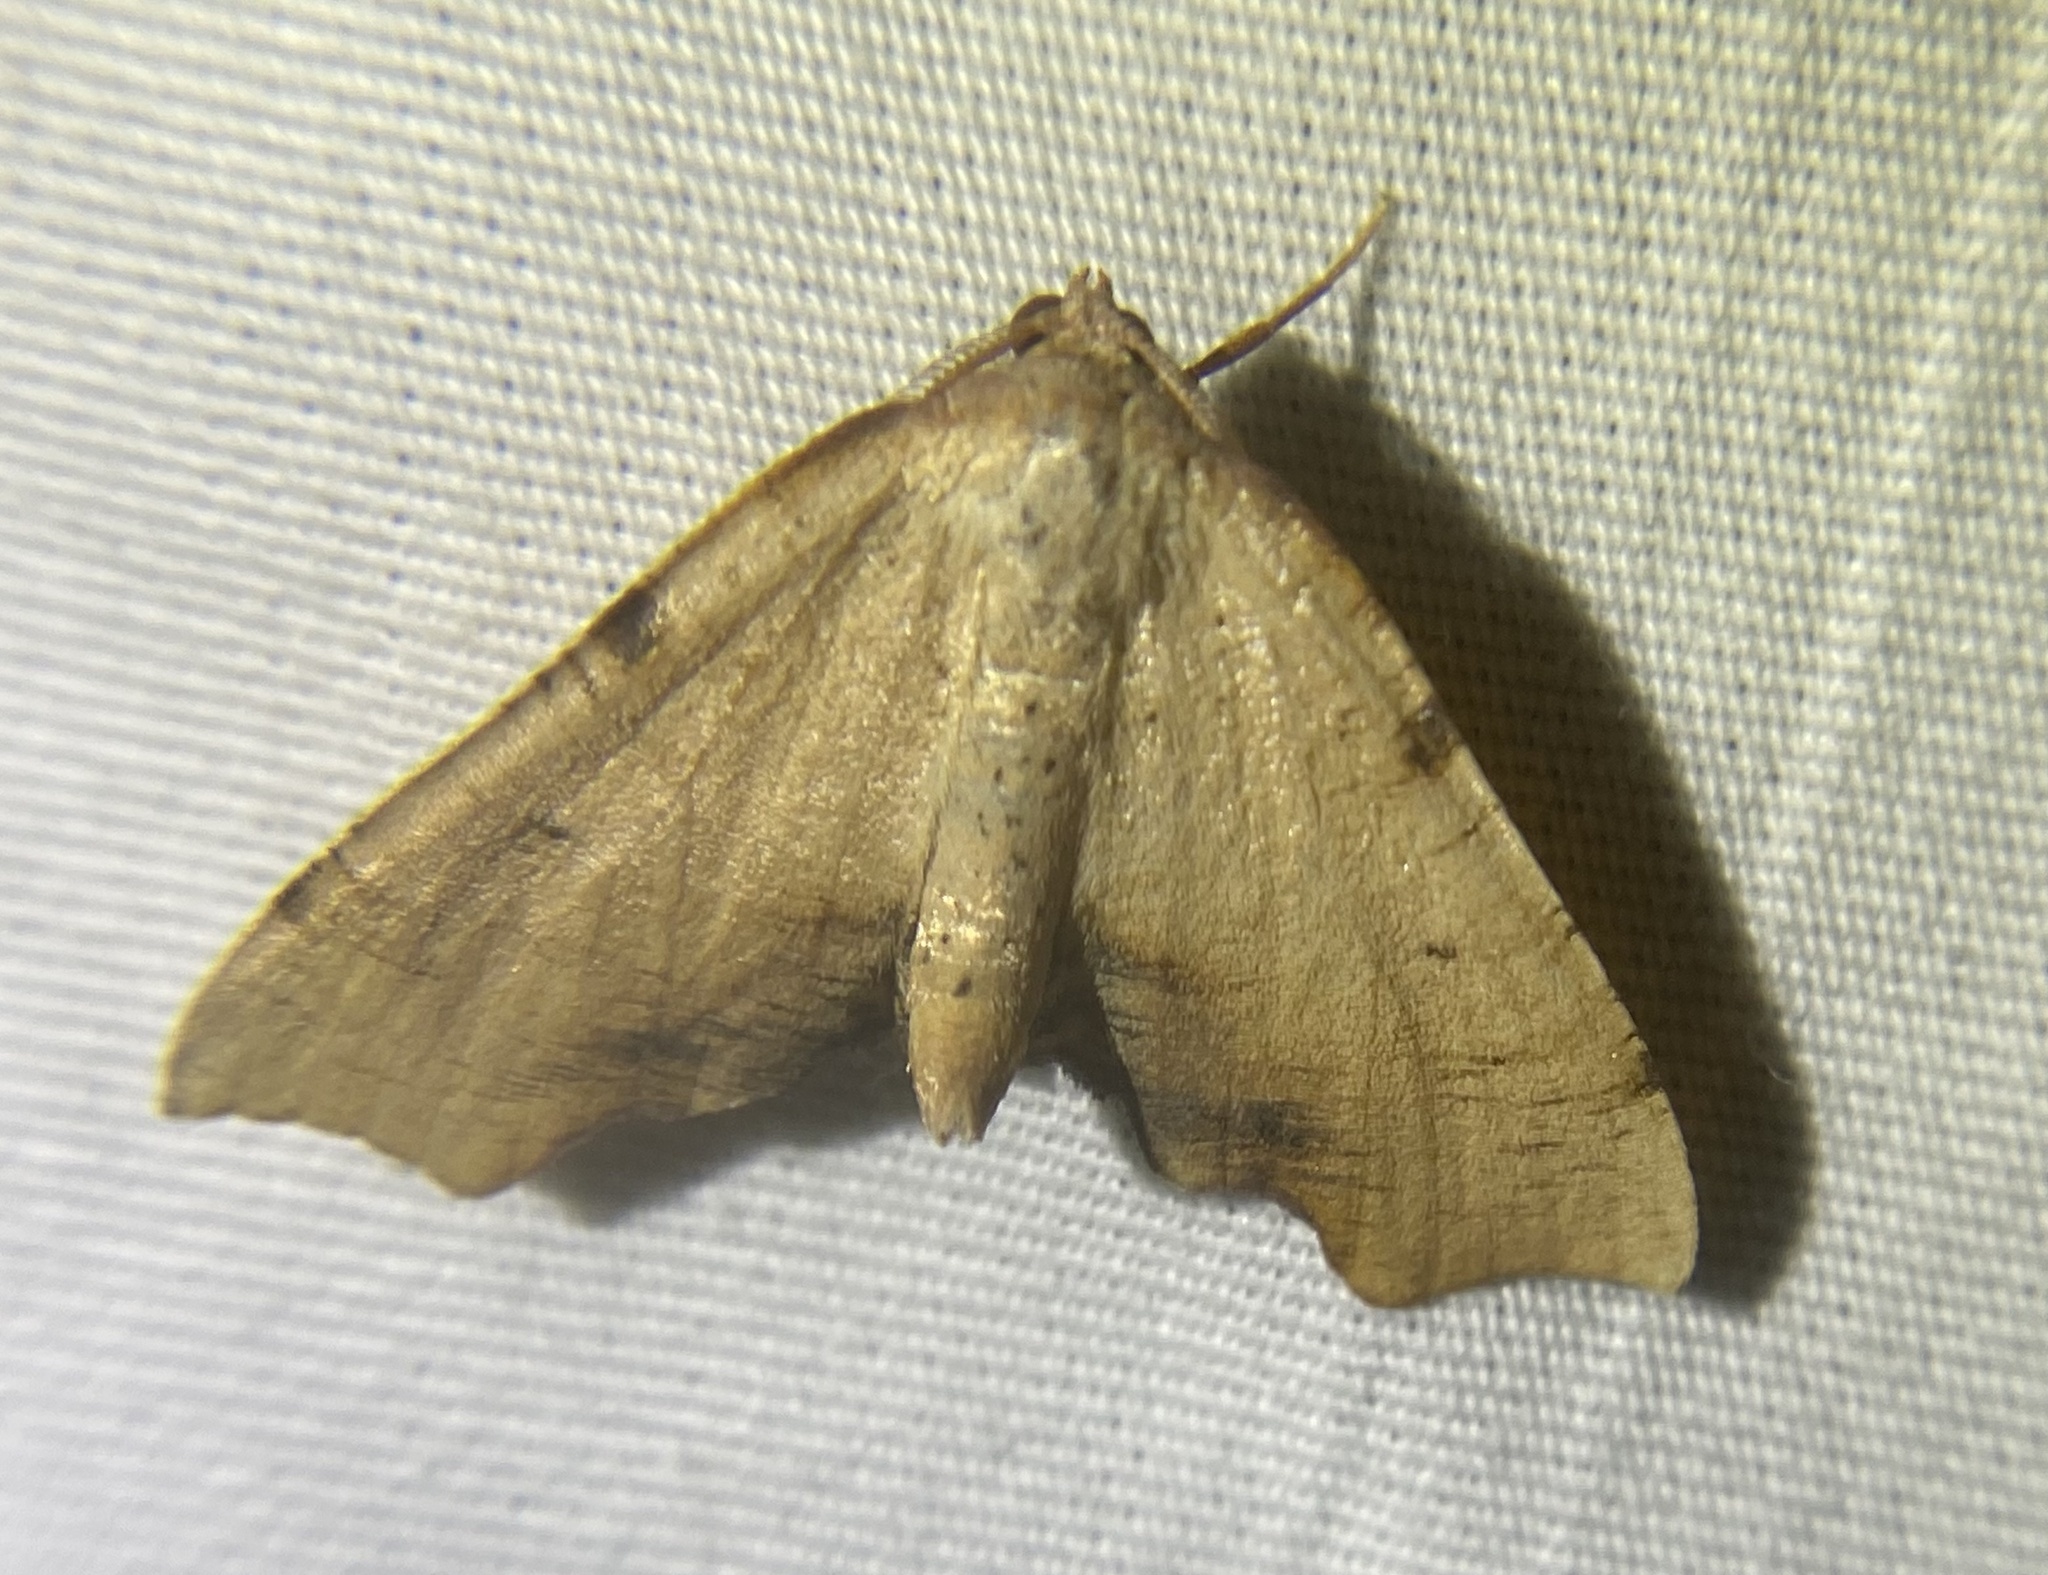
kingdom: Animalia
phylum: Arthropoda
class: Insecta
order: Lepidoptera
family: Geometridae
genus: Plagodis
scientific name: Plagodis fervidaria
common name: Fervid plagodis
